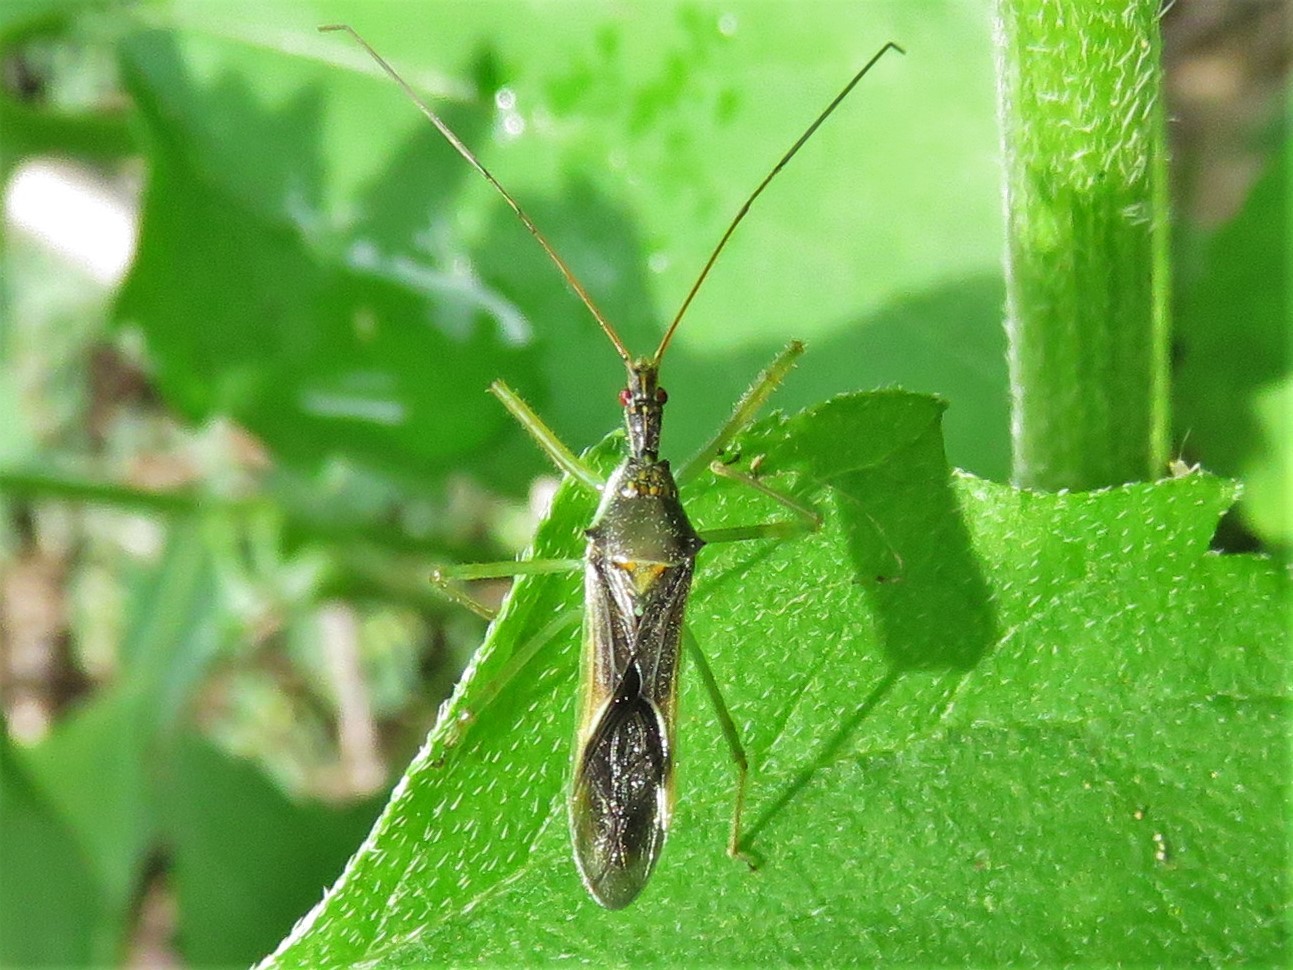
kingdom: Animalia
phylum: Arthropoda
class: Insecta
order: Hemiptera
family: Reduviidae
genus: Zelus
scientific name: Zelus luridus
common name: Pale green assassin bug
